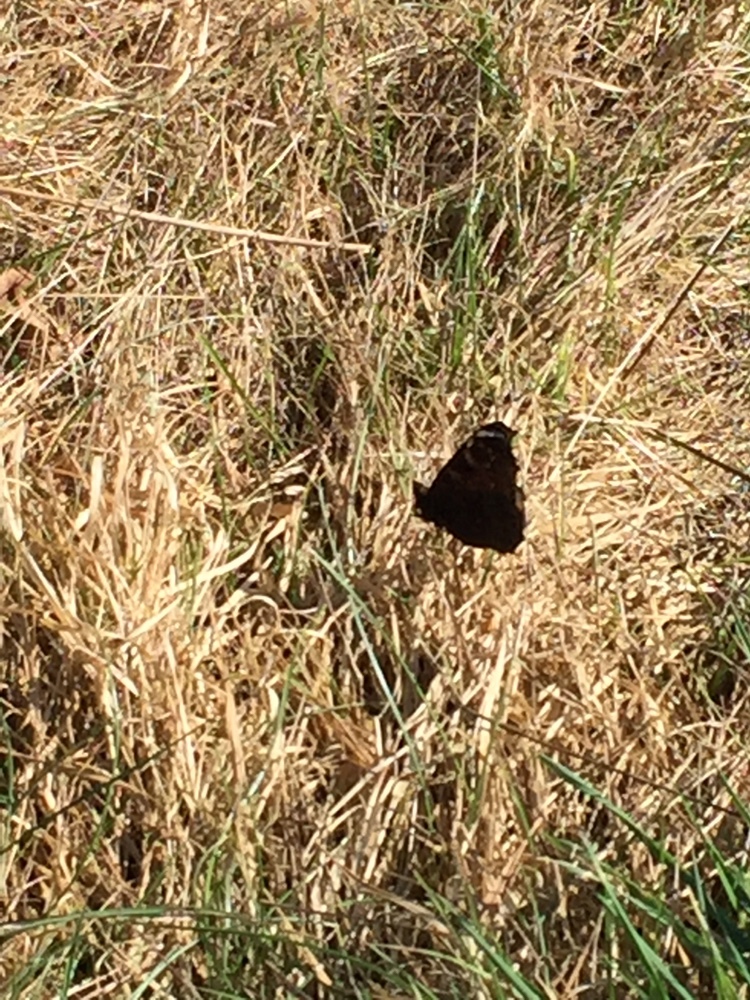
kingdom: Animalia
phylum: Arthropoda
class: Insecta
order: Lepidoptera
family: Nymphalidae
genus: Aglais
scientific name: Aglais io
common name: Peacock
